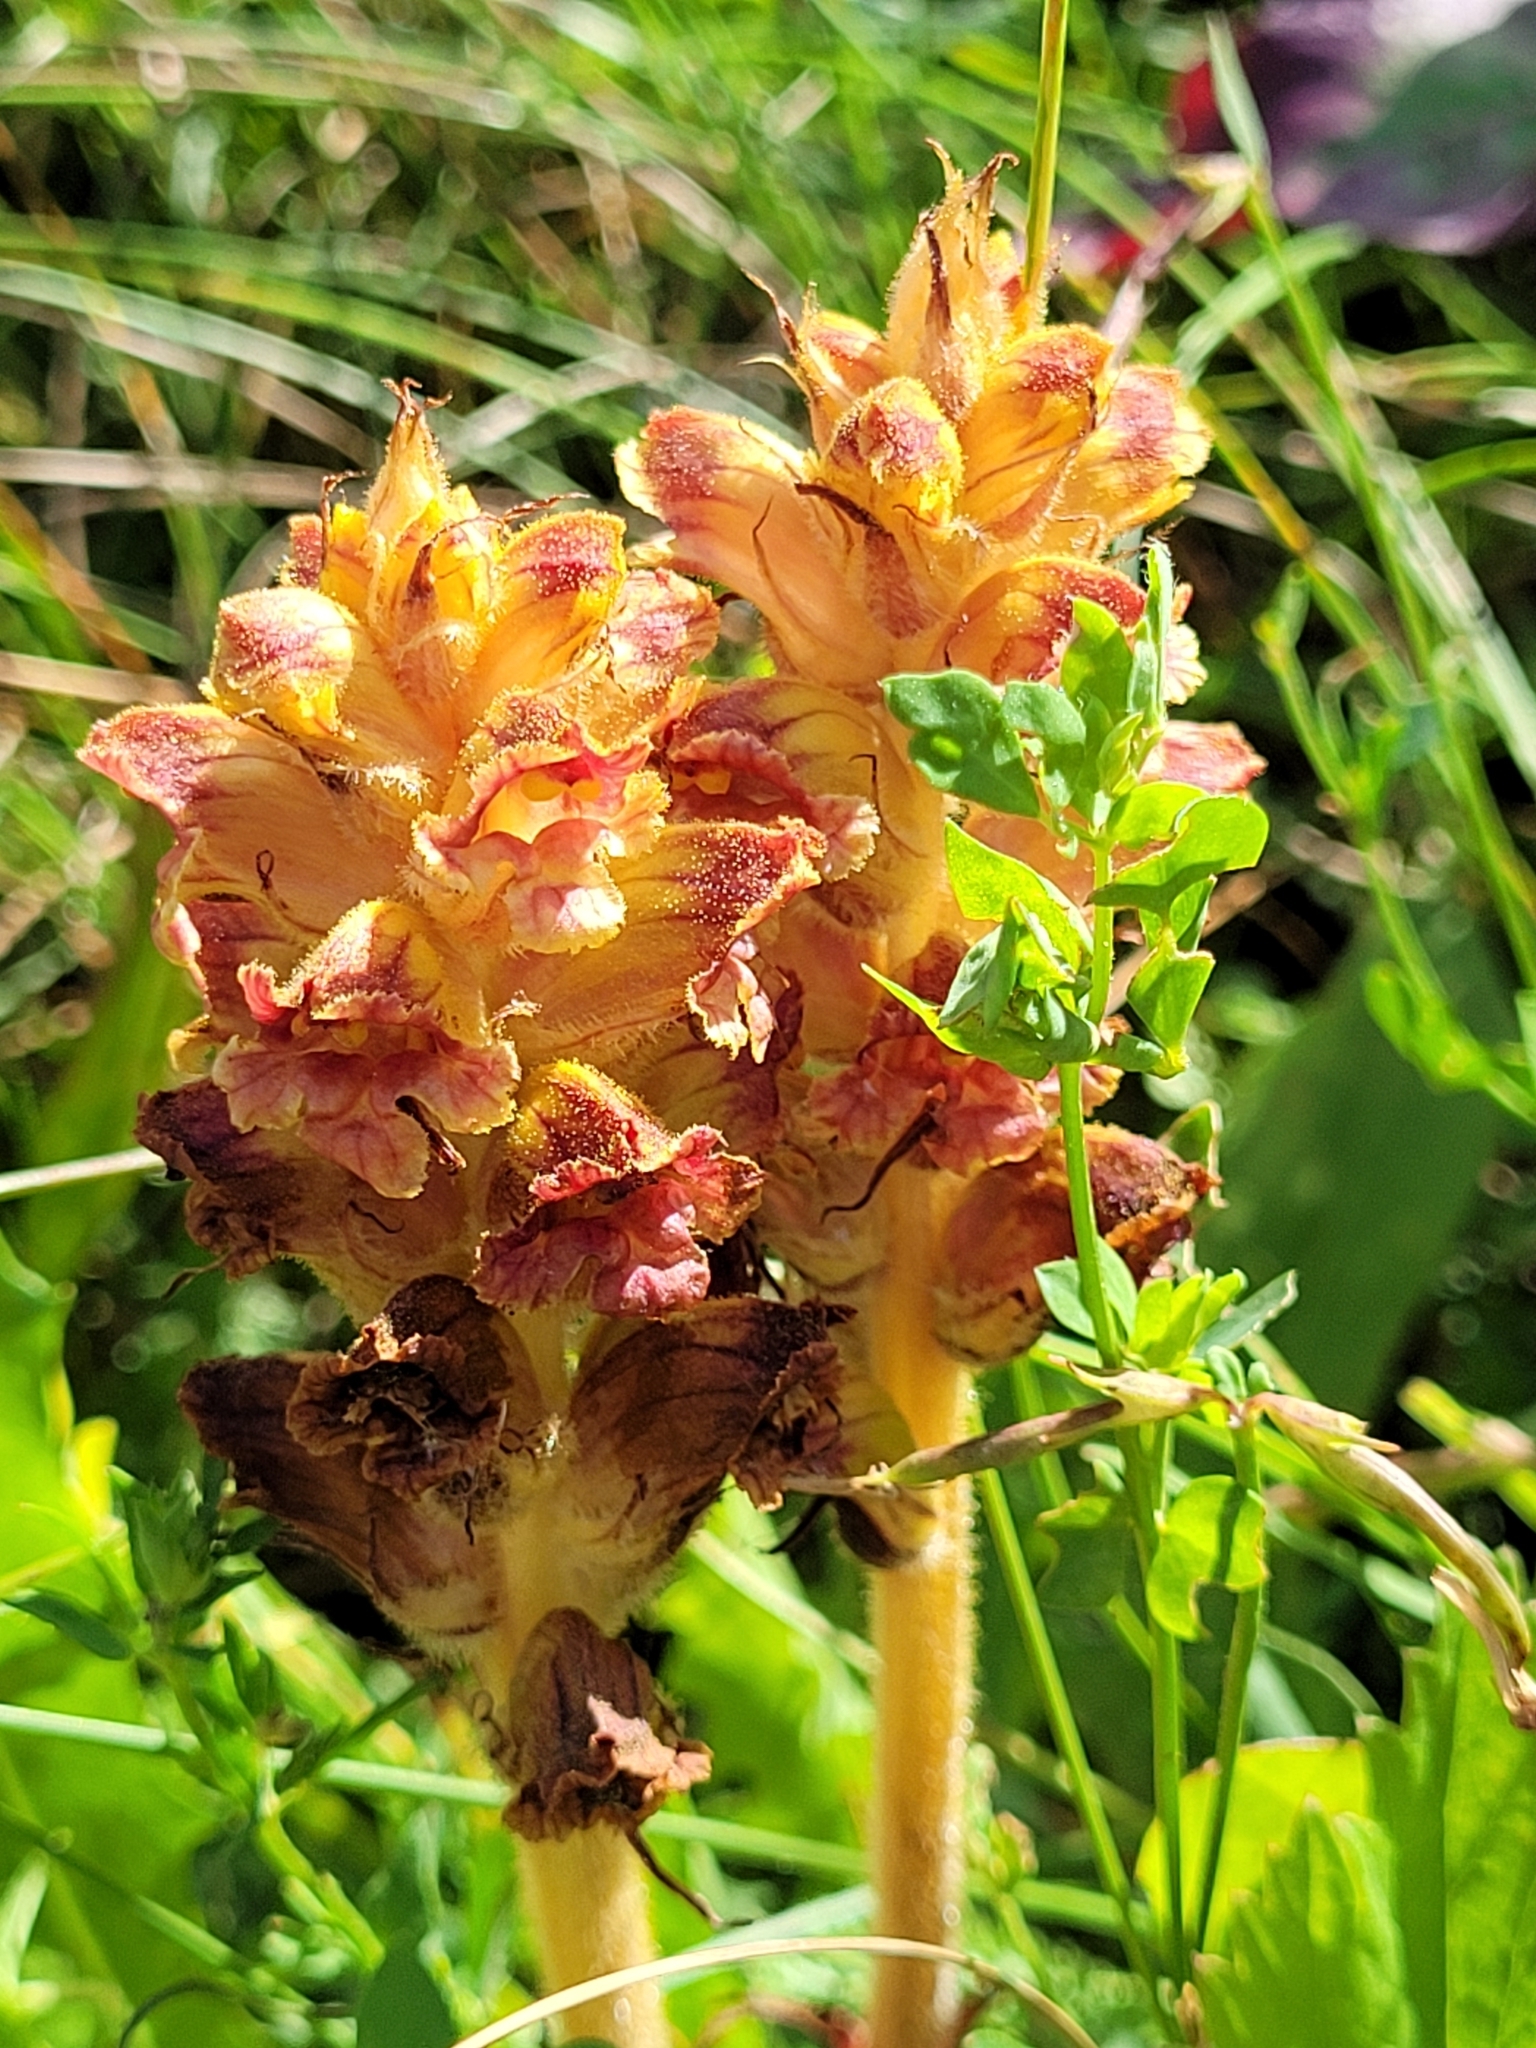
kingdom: Plantae
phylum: Tracheophyta
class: Magnoliopsida
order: Lamiales
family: Orobanchaceae
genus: Orobanche
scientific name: Orobanche gracilis
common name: Slender broomrape
